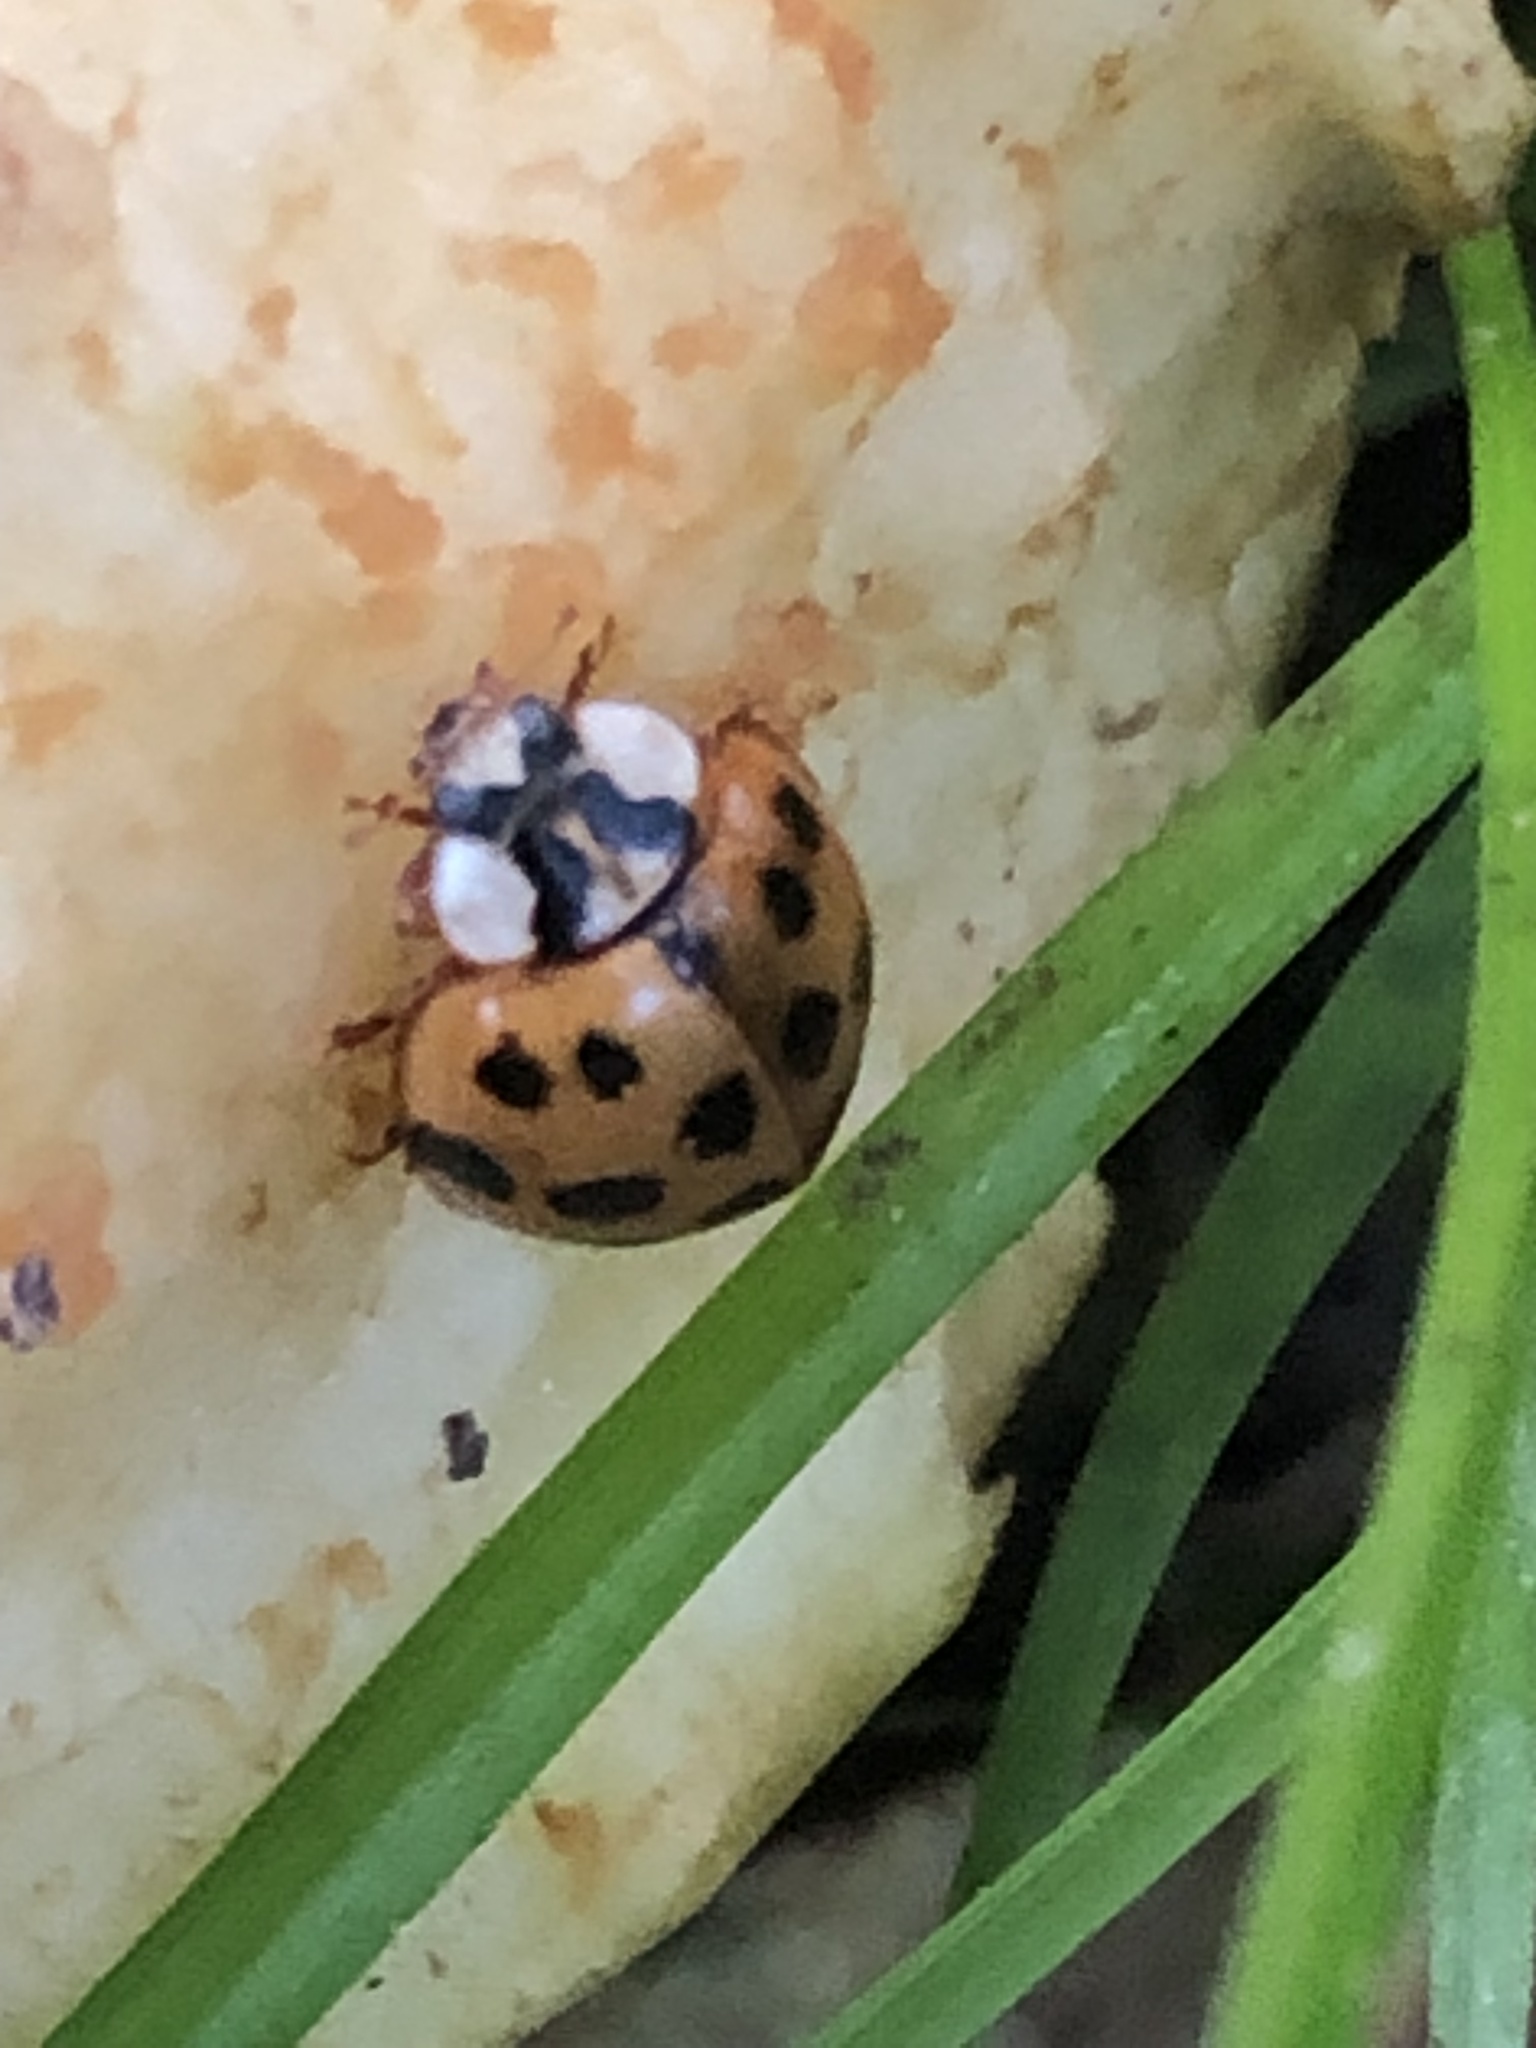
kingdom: Animalia
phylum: Arthropoda
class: Insecta
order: Coleoptera
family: Coccinellidae
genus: Harmonia
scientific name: Harmonia axyridis
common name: Harlequin ladybird
